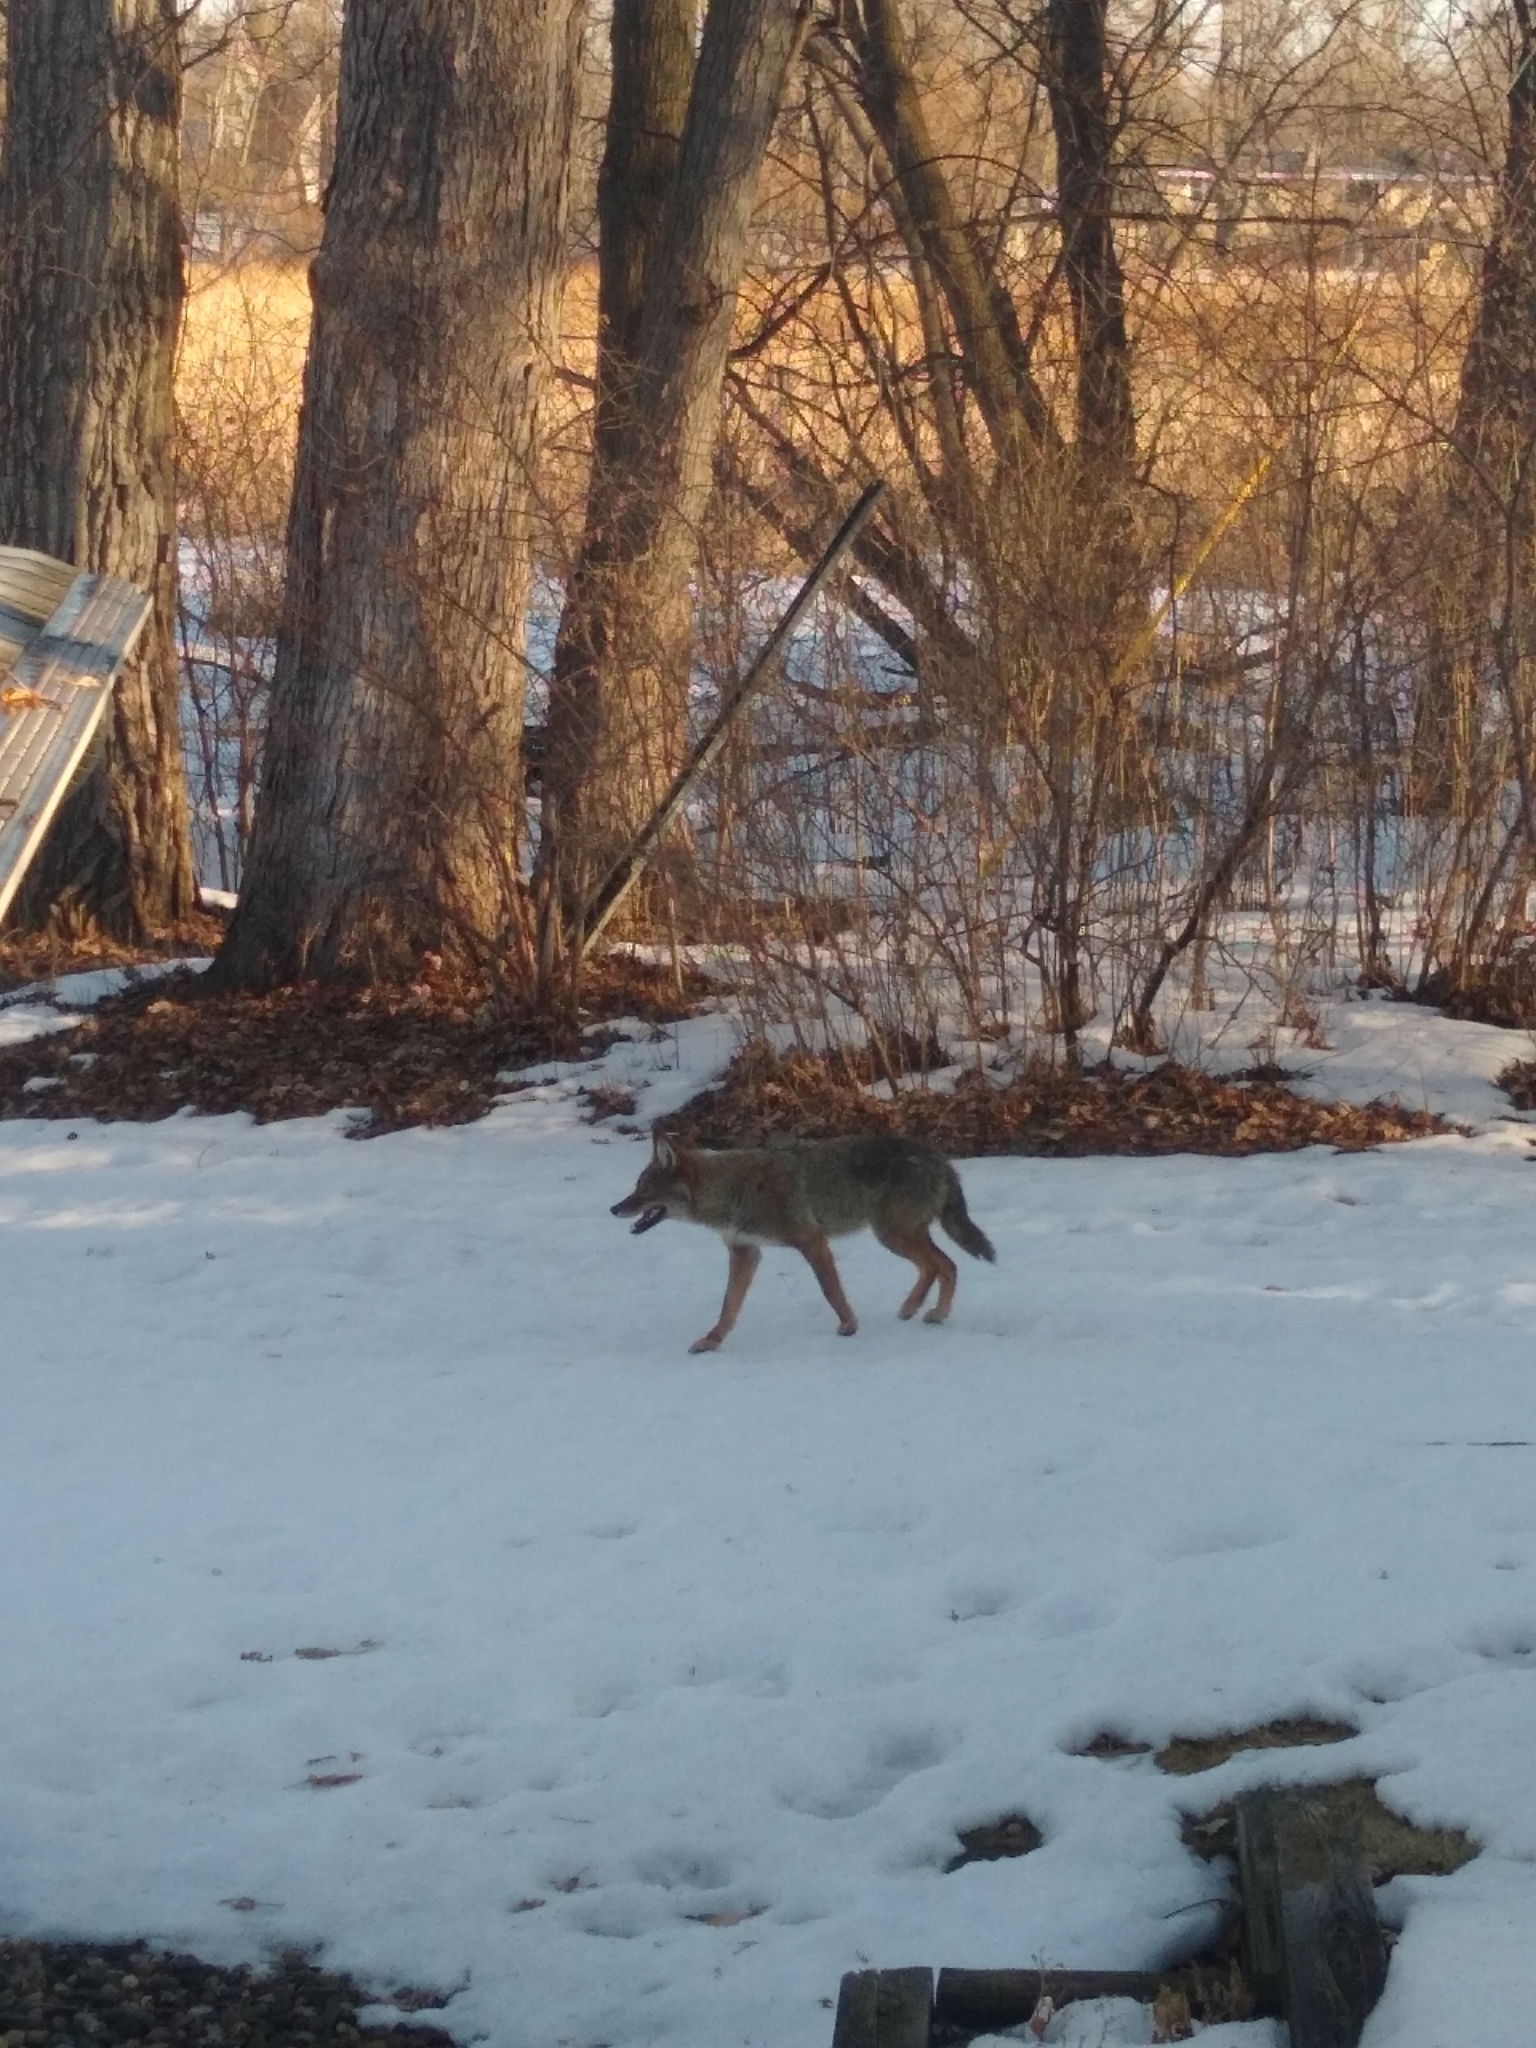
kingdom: Animalia
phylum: Chordata
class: Mammalia
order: Carnivora
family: Canidae
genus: Canis
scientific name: Canis latrans
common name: Coyote
